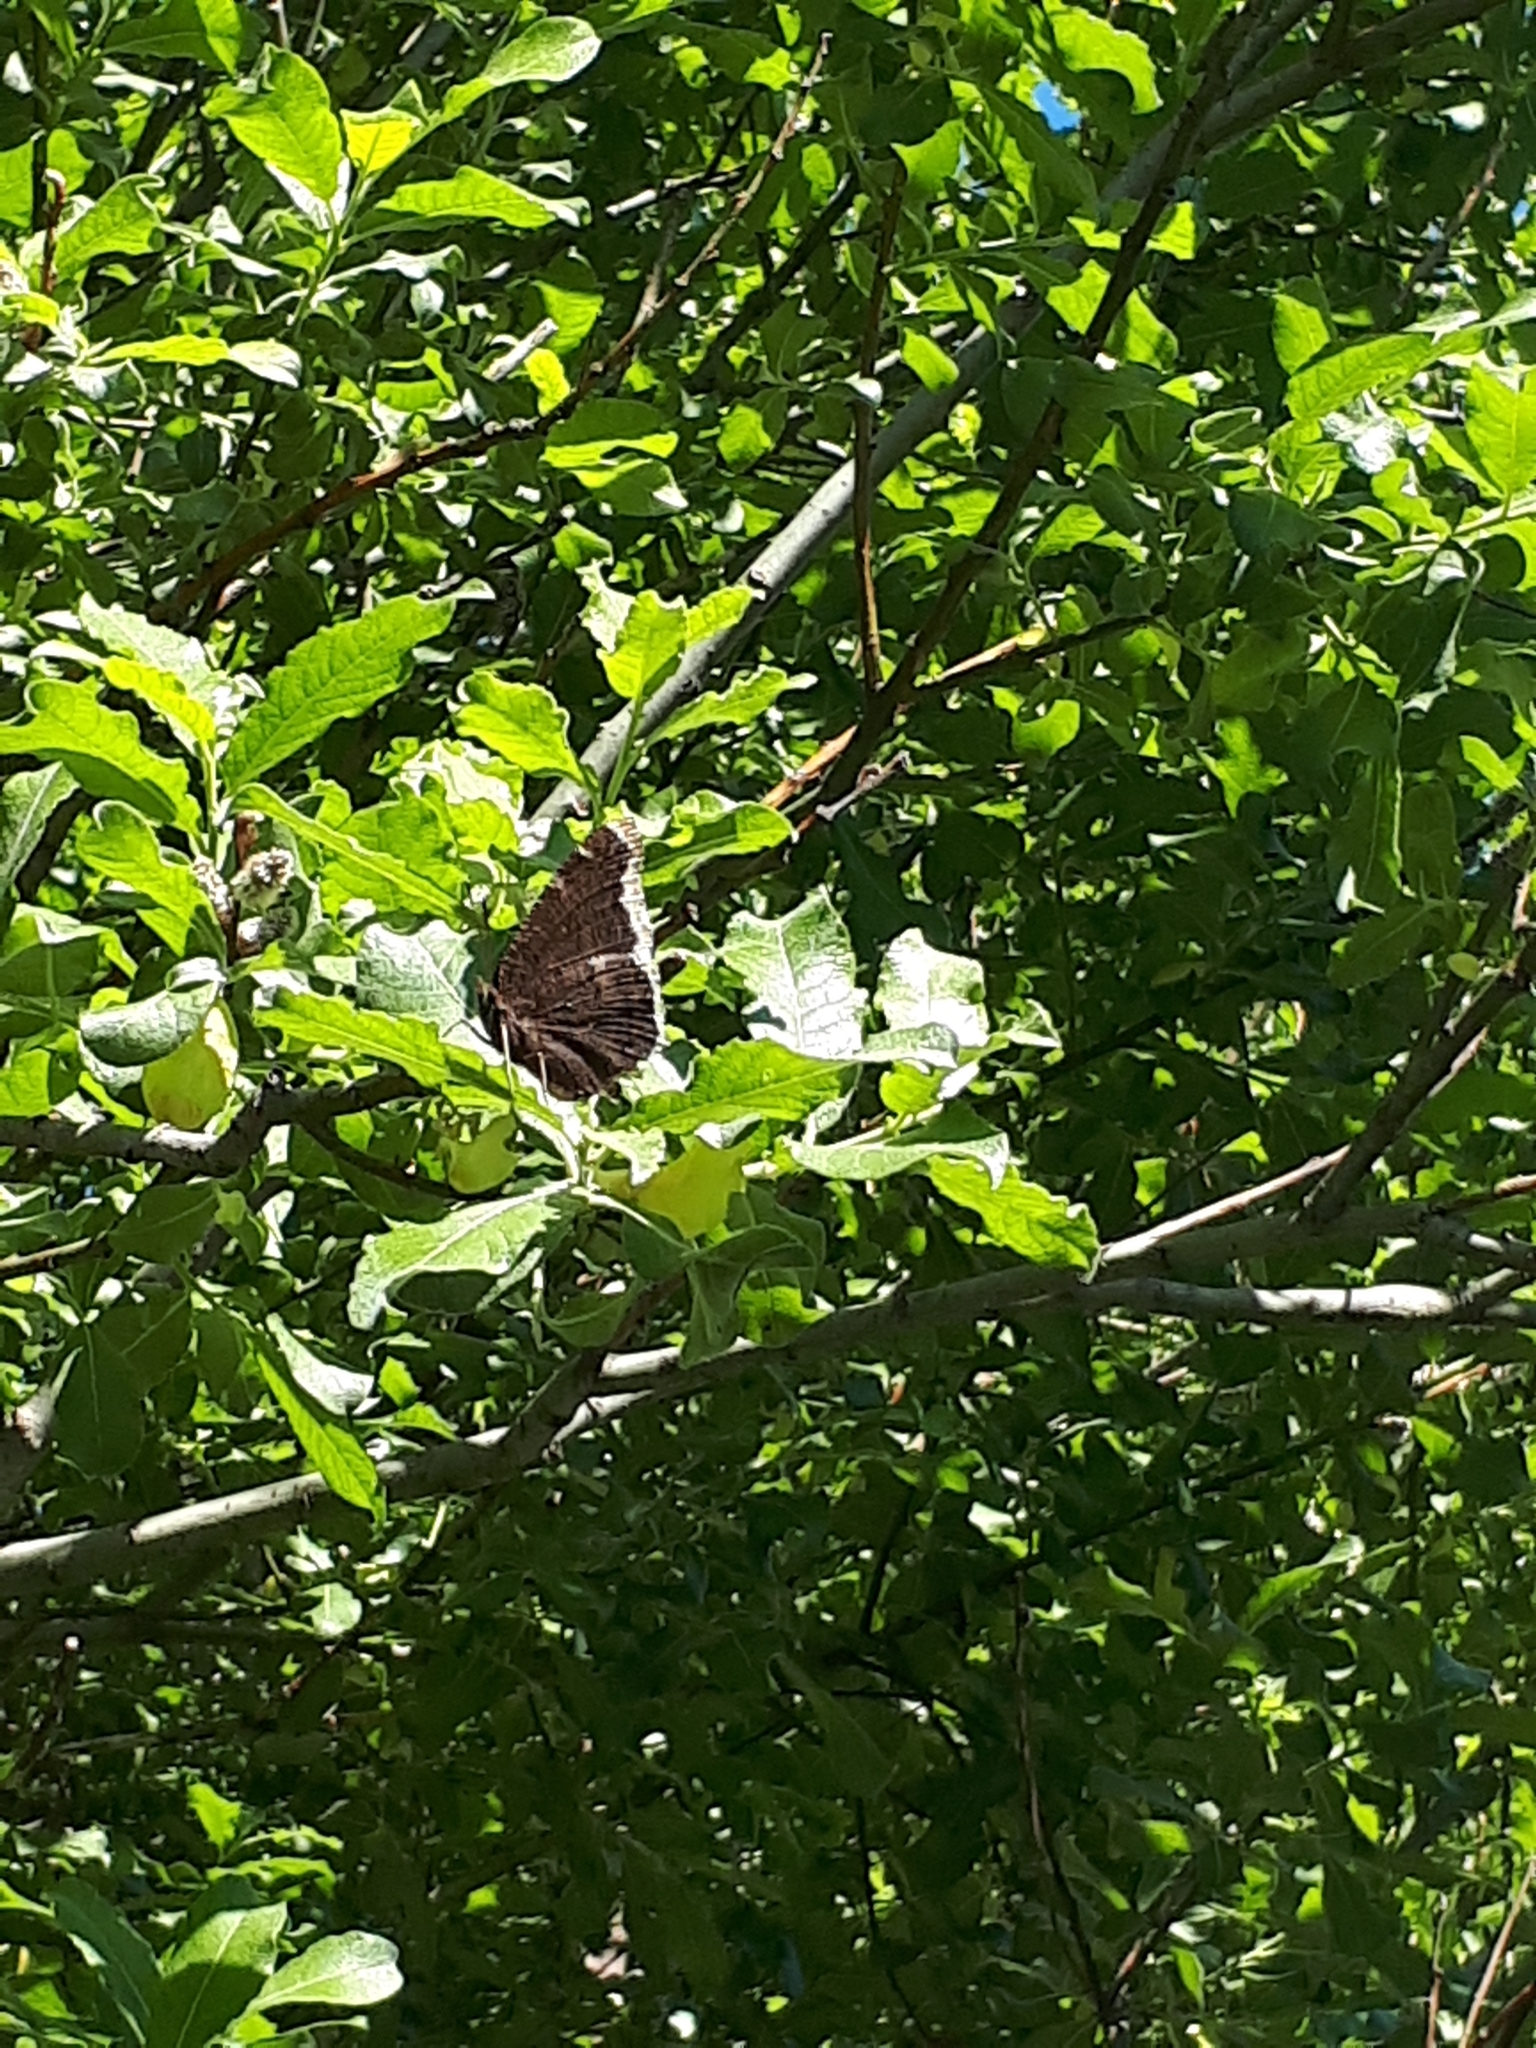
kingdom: Animalia
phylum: Arthropoda
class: Insecta
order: Lepidoptera
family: Nymphalidae
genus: Nymphalis
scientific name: Nymphalis antiopa
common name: Camberwell beauty
